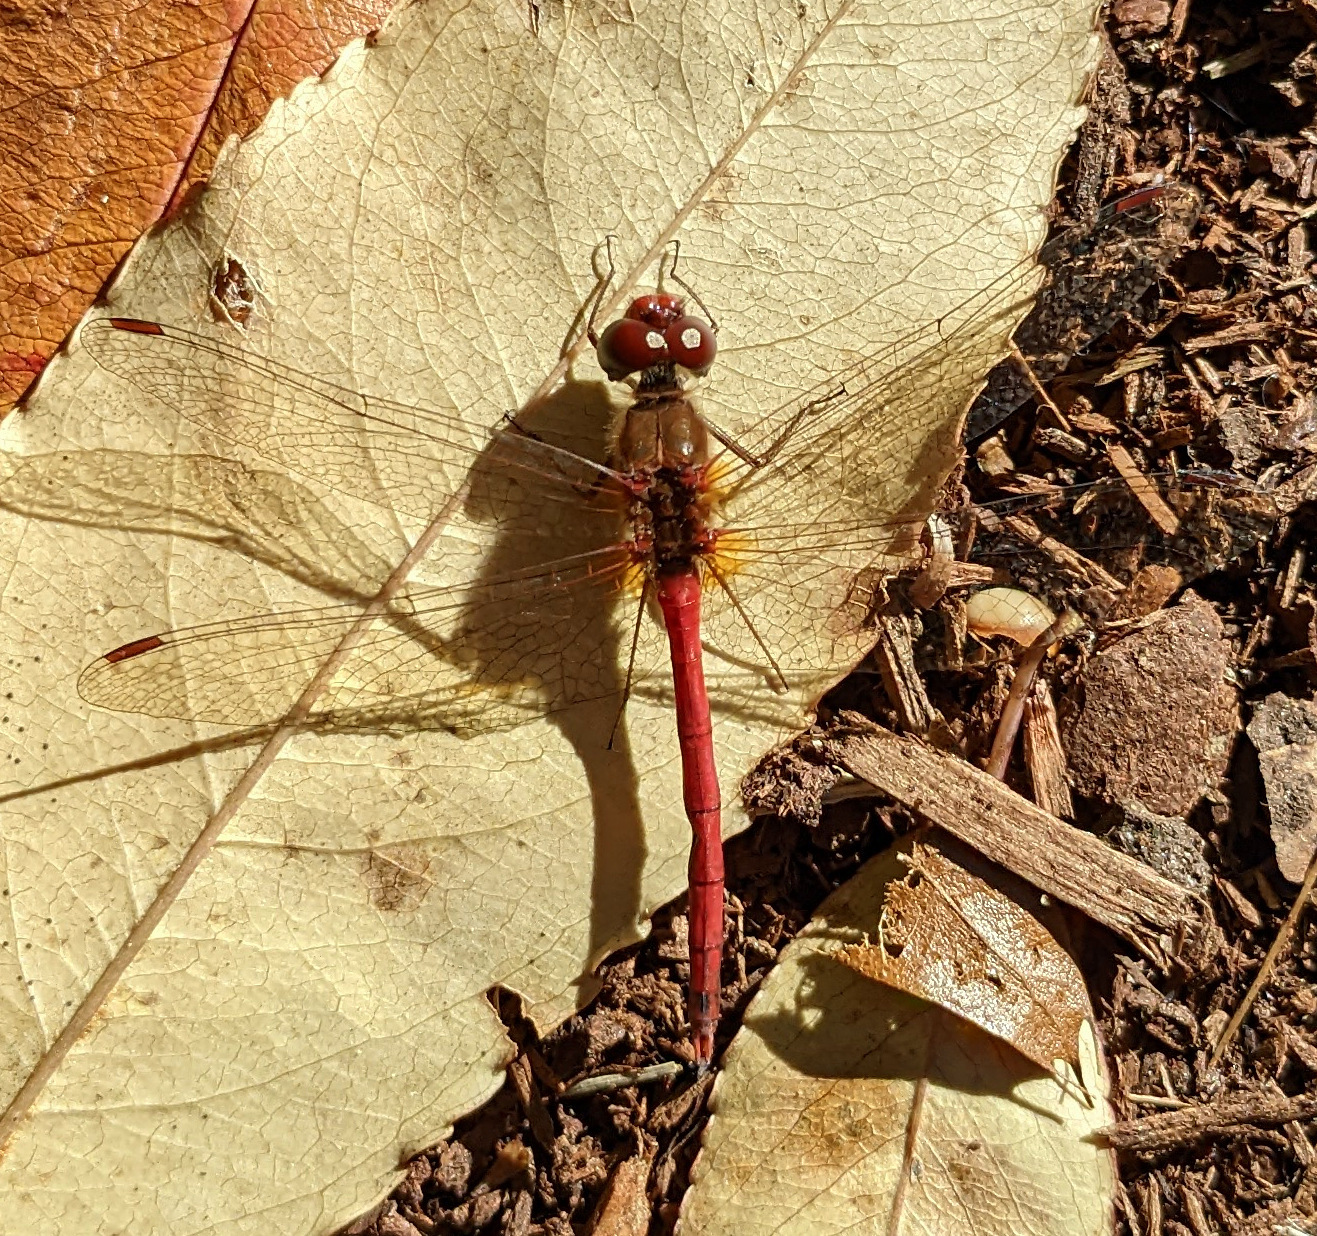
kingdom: Animalia
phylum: Arthropoda
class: Insecta
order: Odonata
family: Libellulidae
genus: Sympetrum
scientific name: Sympetrum vicinum
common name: Autumn meadowhawk
